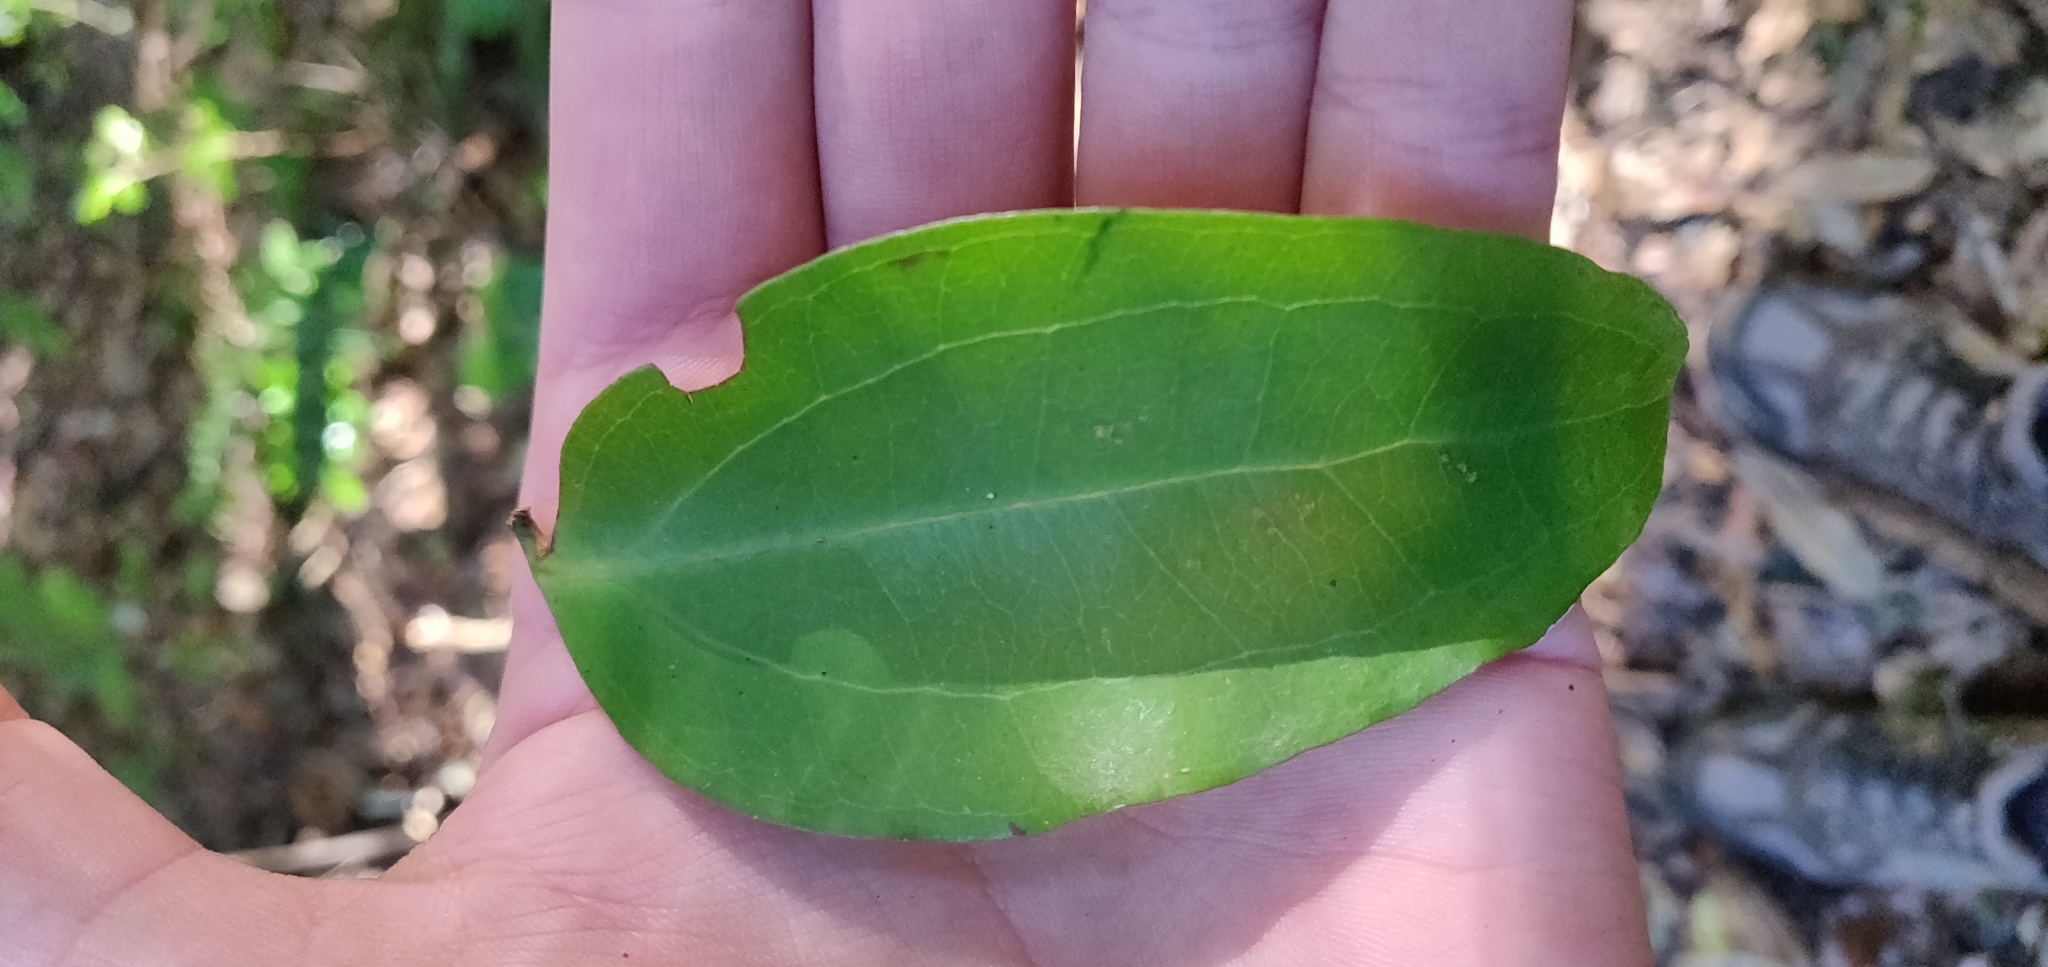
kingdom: Plantae
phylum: Tracheophyta
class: Liliopsida
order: Liliales
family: Ripogonaceae
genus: Ripogonum
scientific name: Ripogonum scandens
